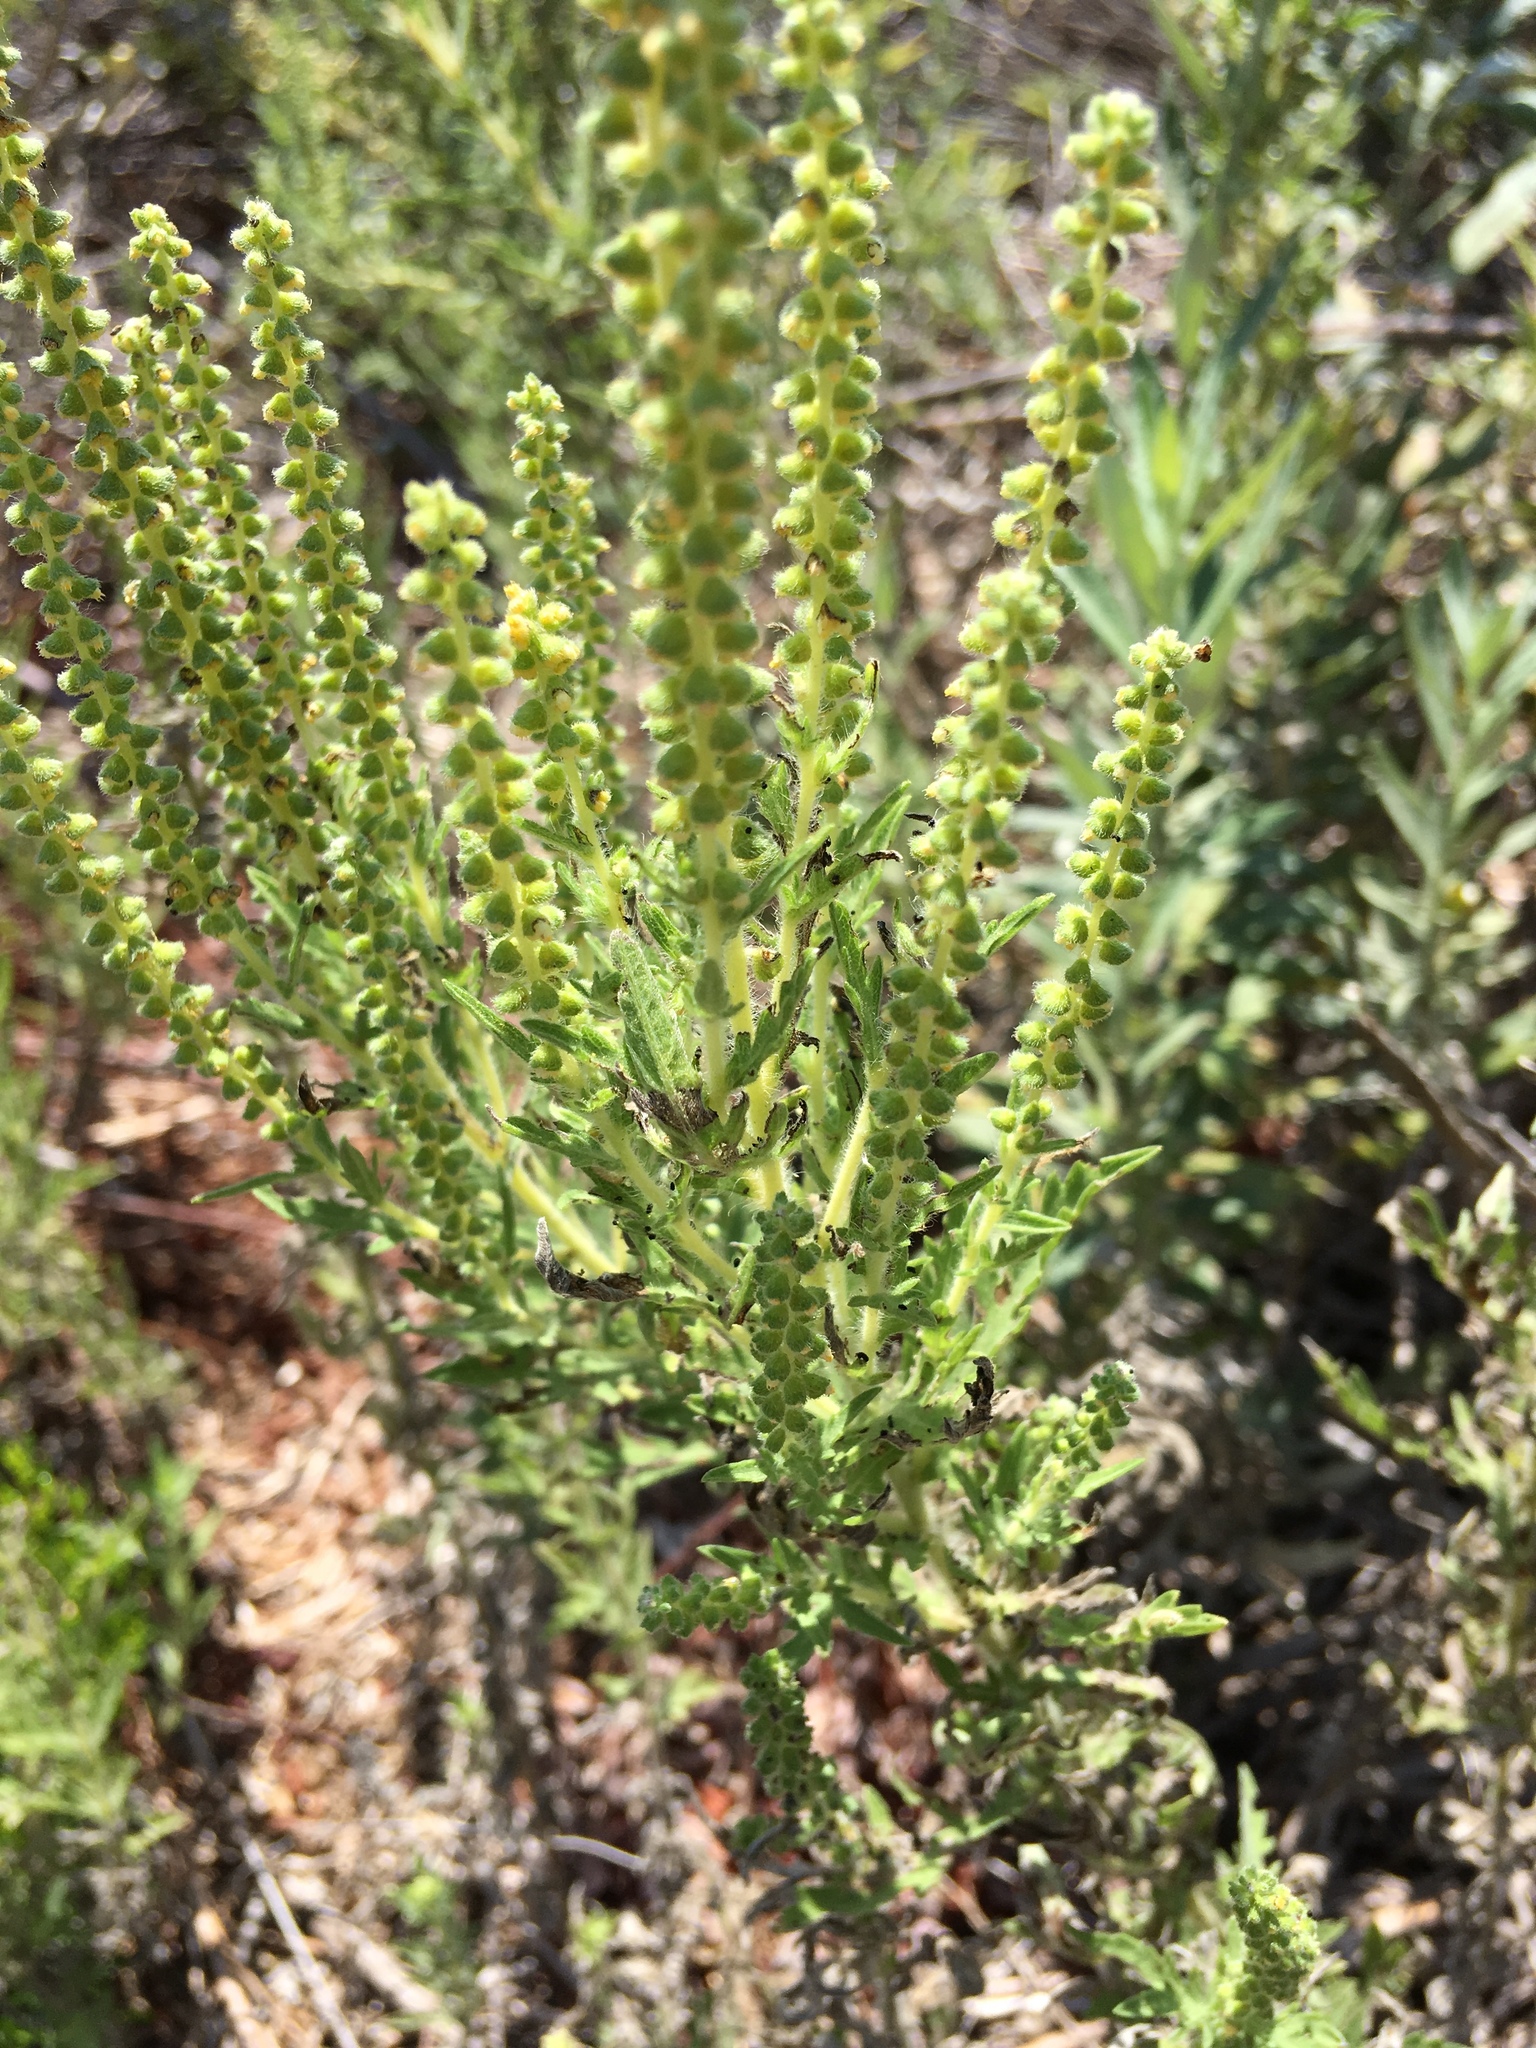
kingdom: Plantae
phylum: Tracheophyta
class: Magnoliopsida
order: Asterales
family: Asteraceae
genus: Ambrosia
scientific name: Ambrosia psilostachya
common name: Perennial ragweed
